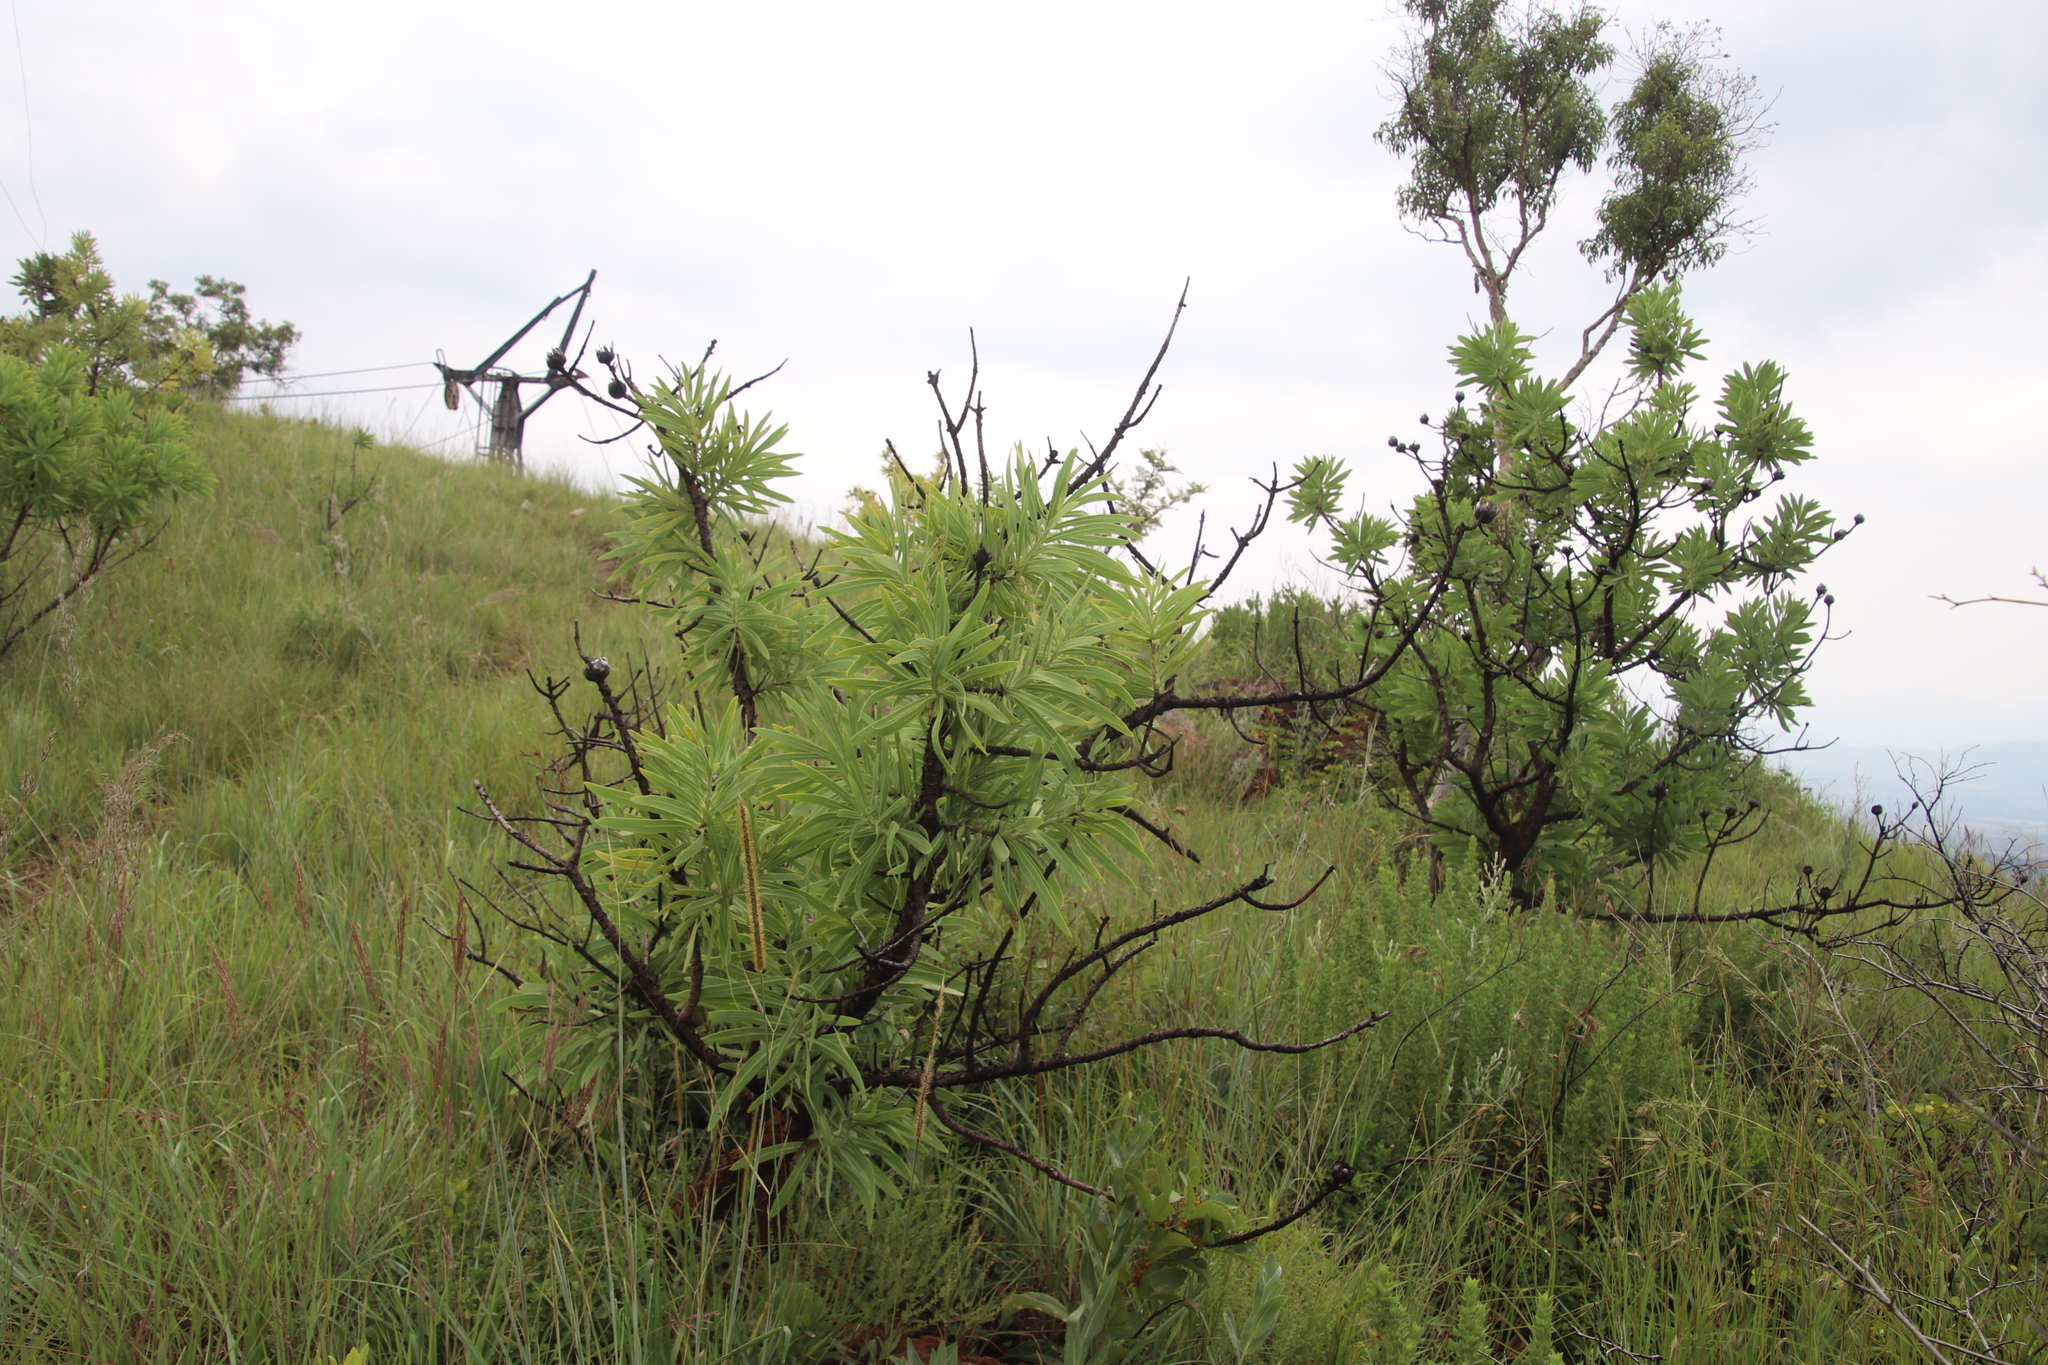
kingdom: Plantae
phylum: Tracheophyta
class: Magnoliopsida
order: Proteales
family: Proteaceae
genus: Protea
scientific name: Protea gaguedi
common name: African protea
